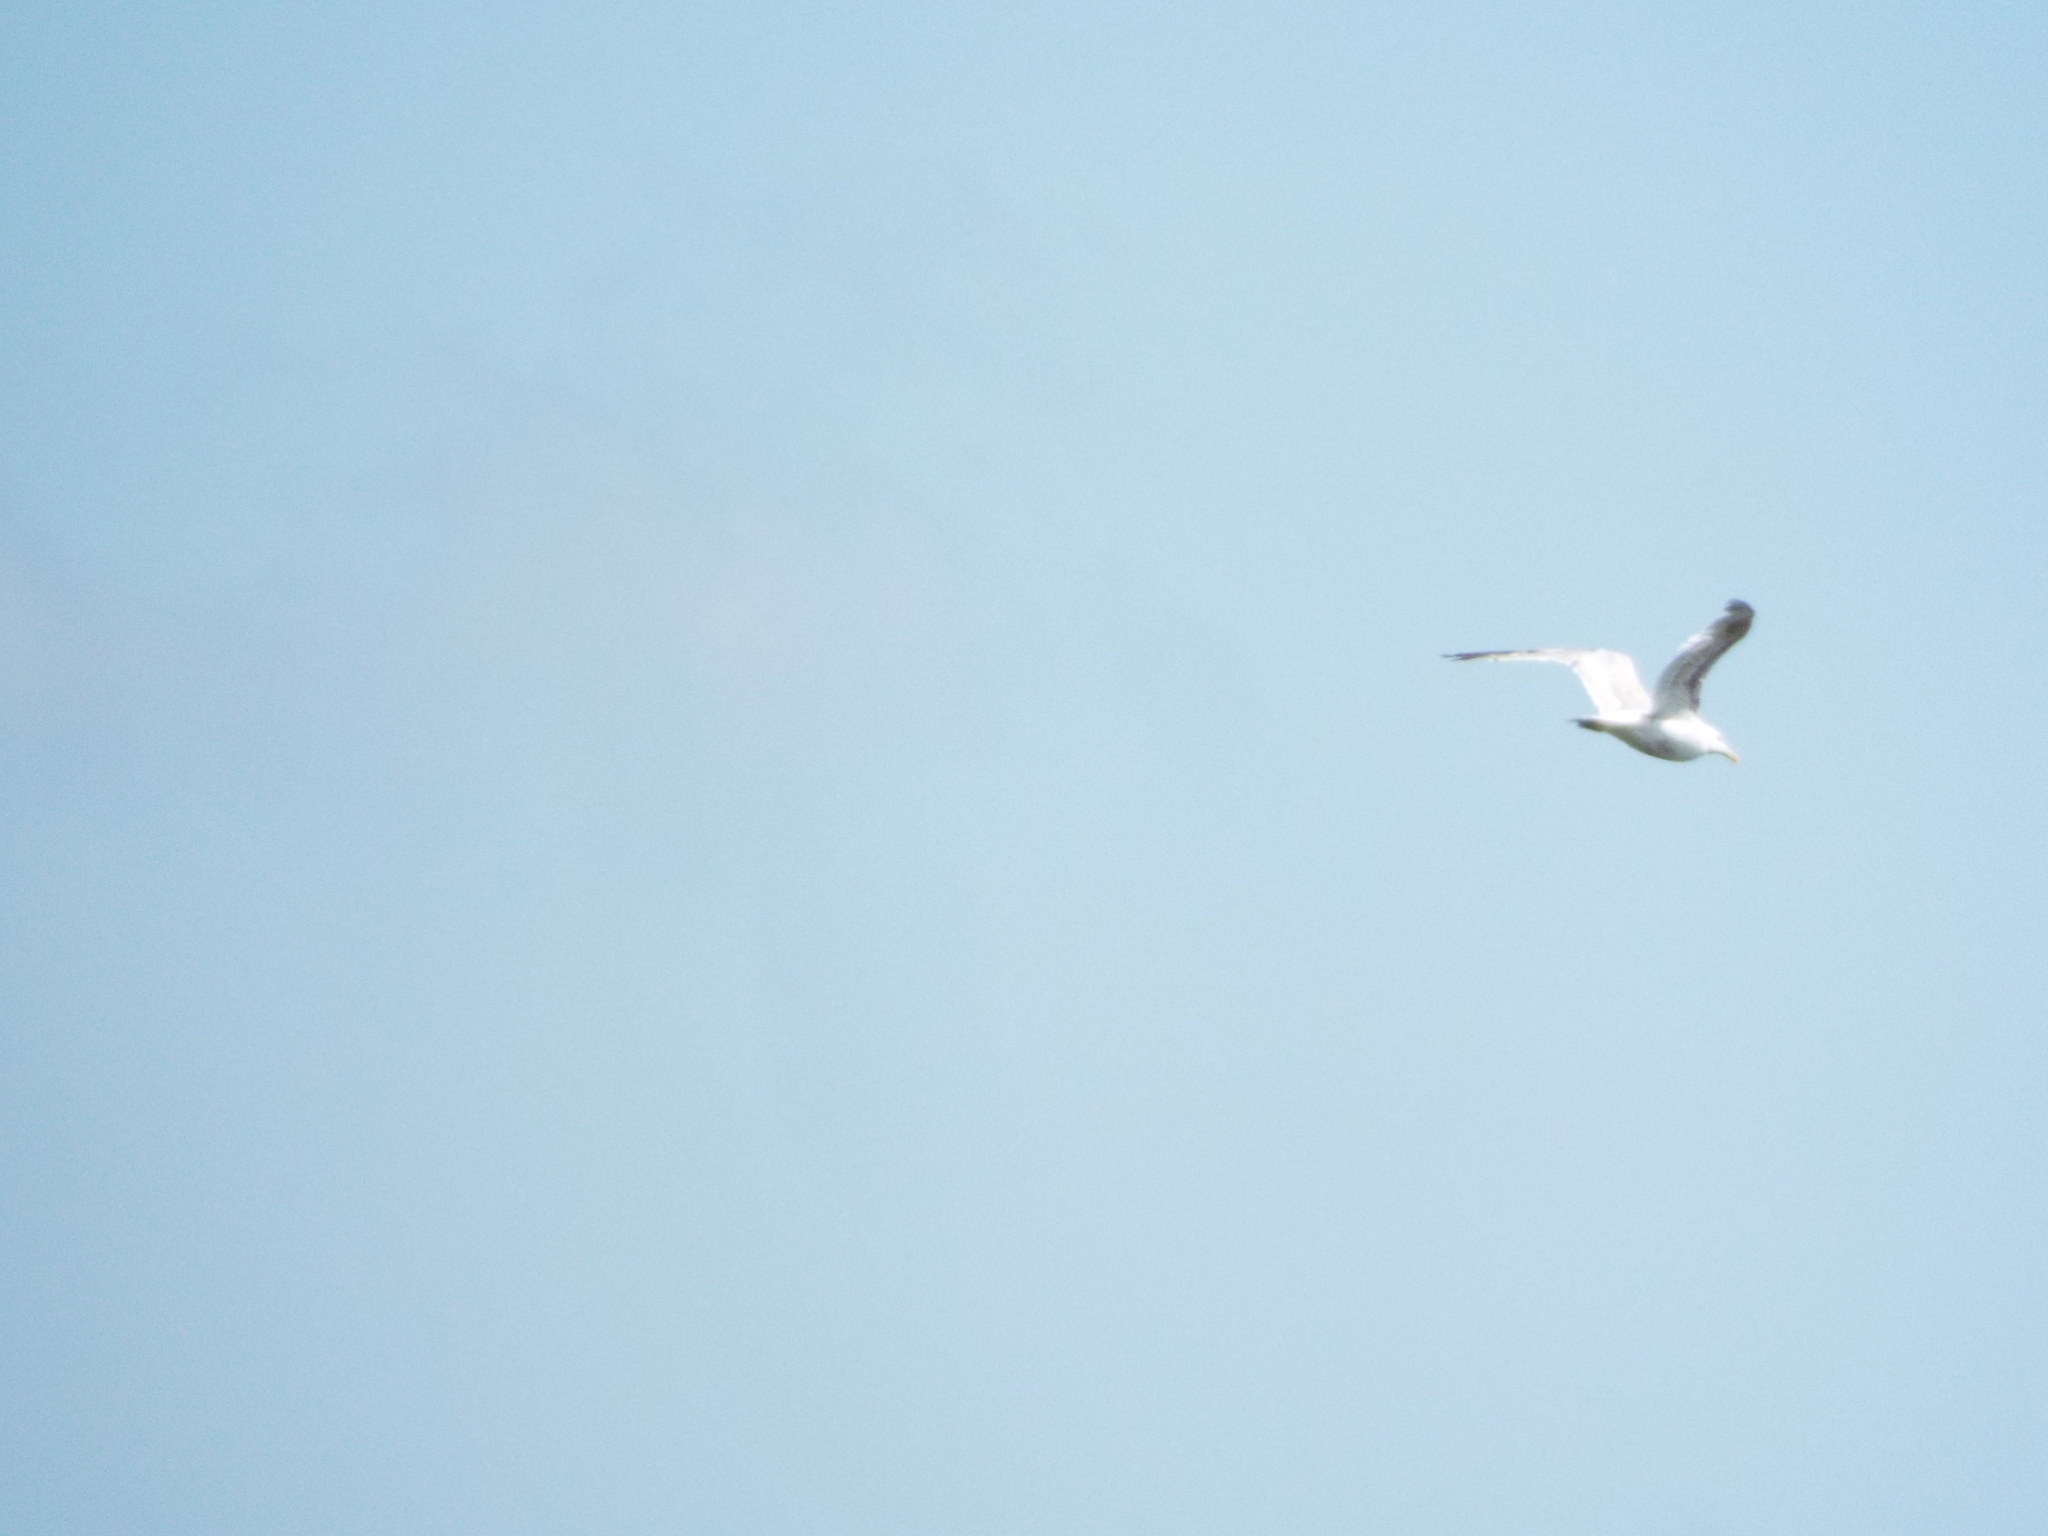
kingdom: Animalia
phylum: Chordata
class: Aves
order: Charadriiformes
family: Laridae
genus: Larus
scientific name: Larus argentatus
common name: Herring gull
